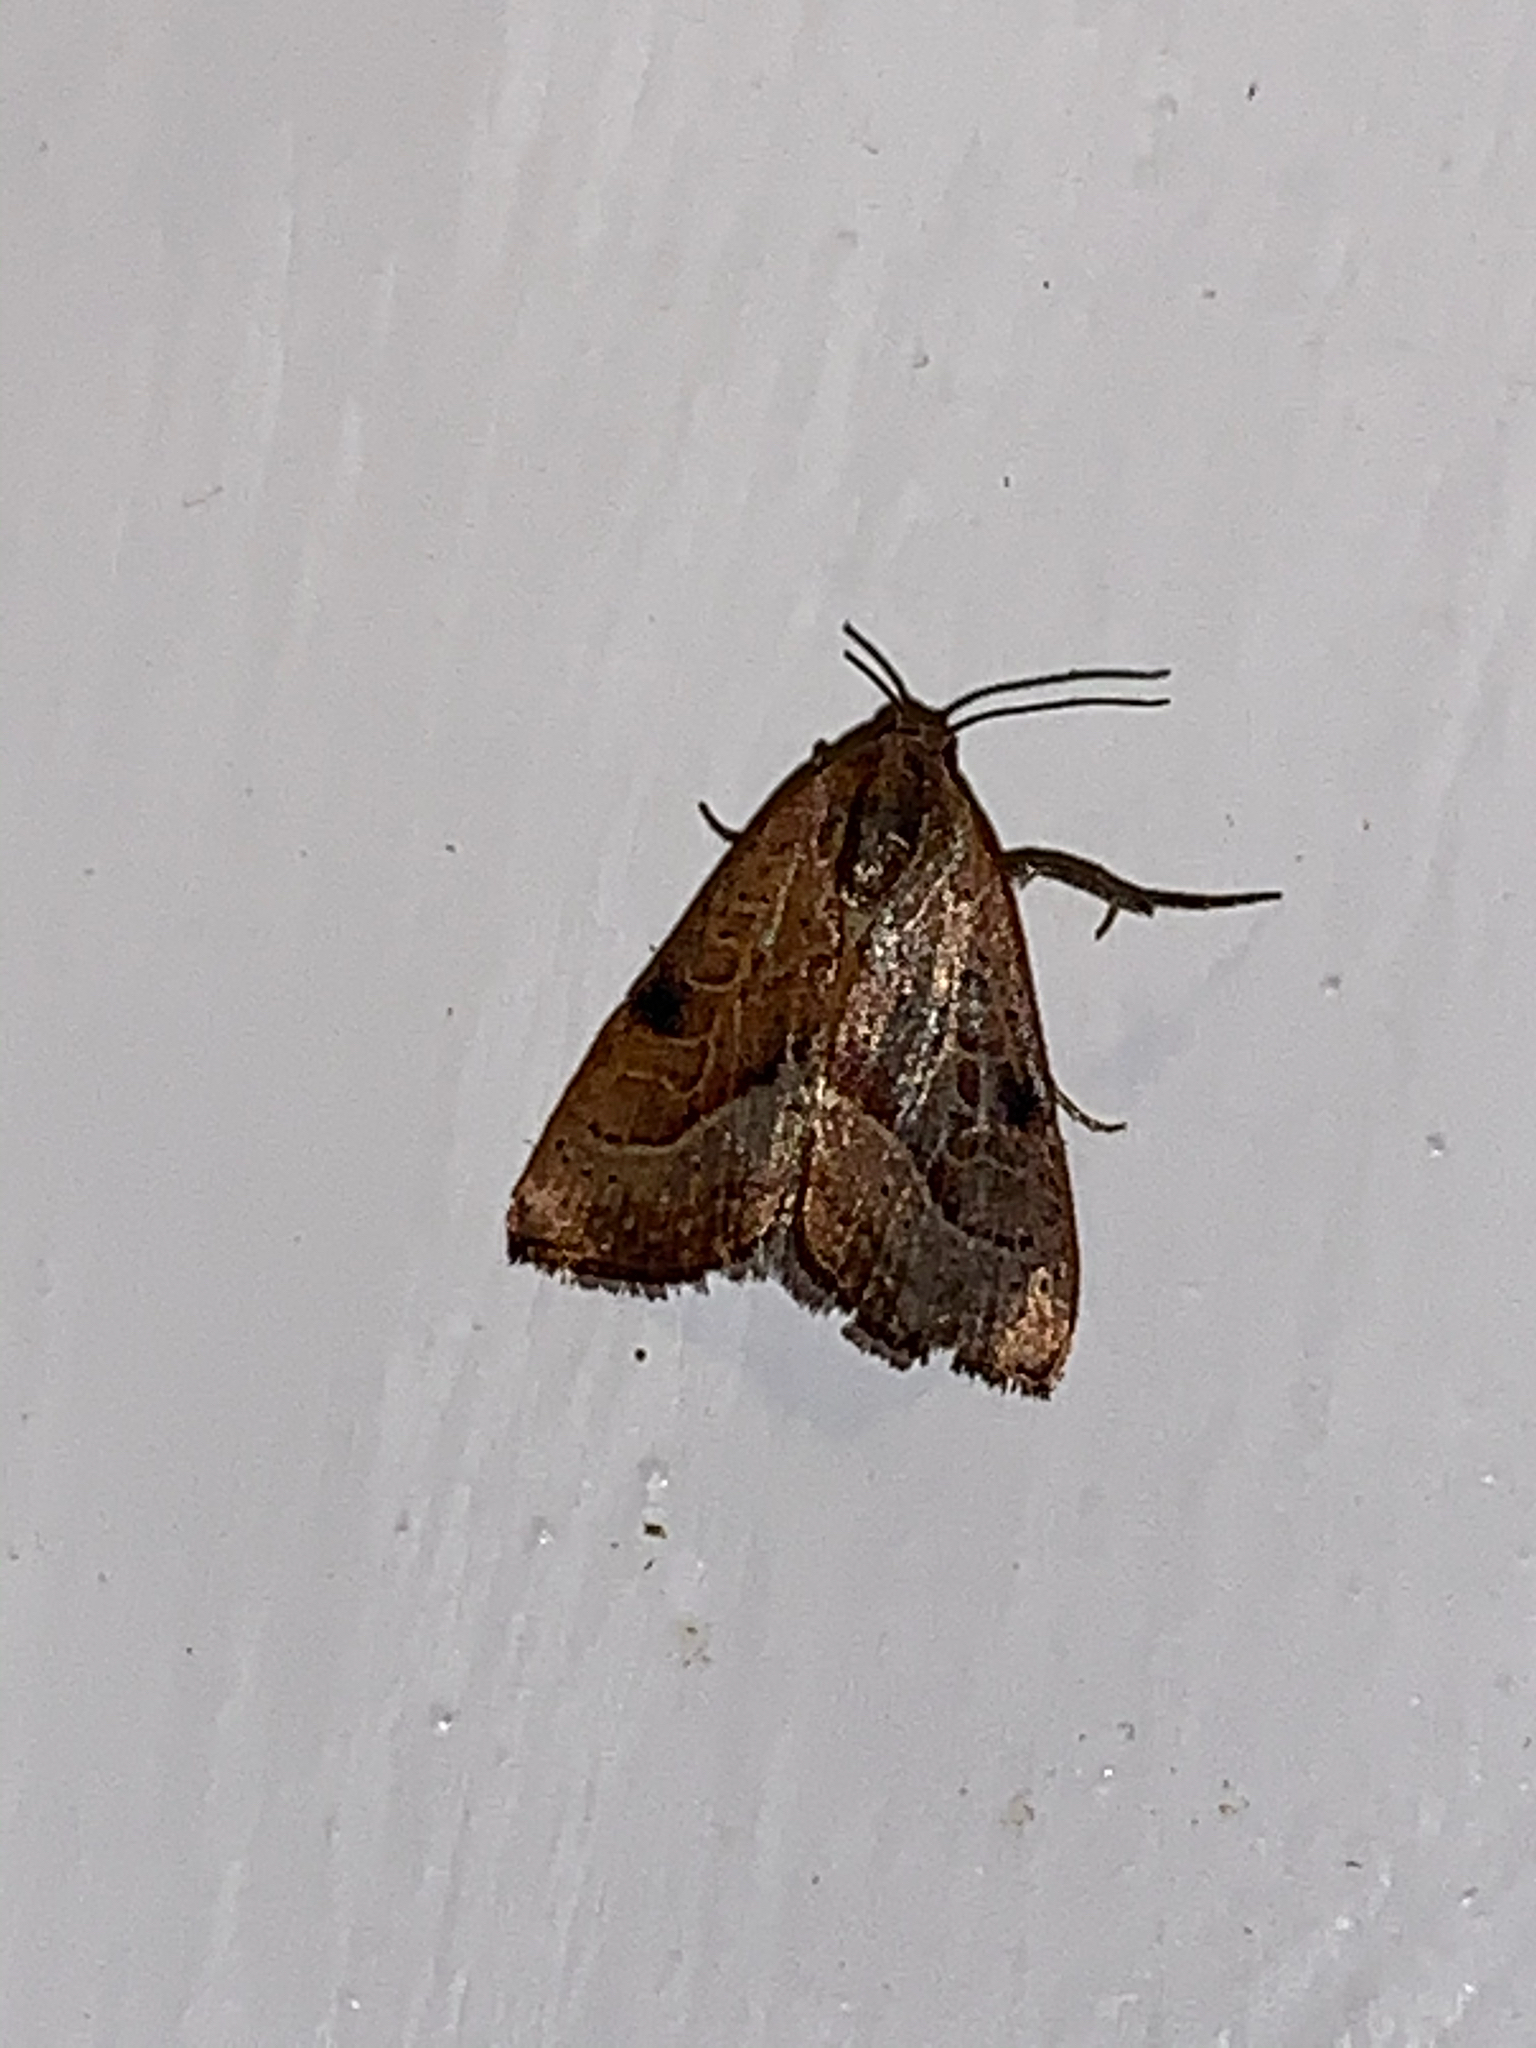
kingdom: Animalia
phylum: Arthropoda
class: Insecta
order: Lepidoptera
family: Noctuidae
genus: Galgula
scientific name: Galgula partita
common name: Wedgeling
